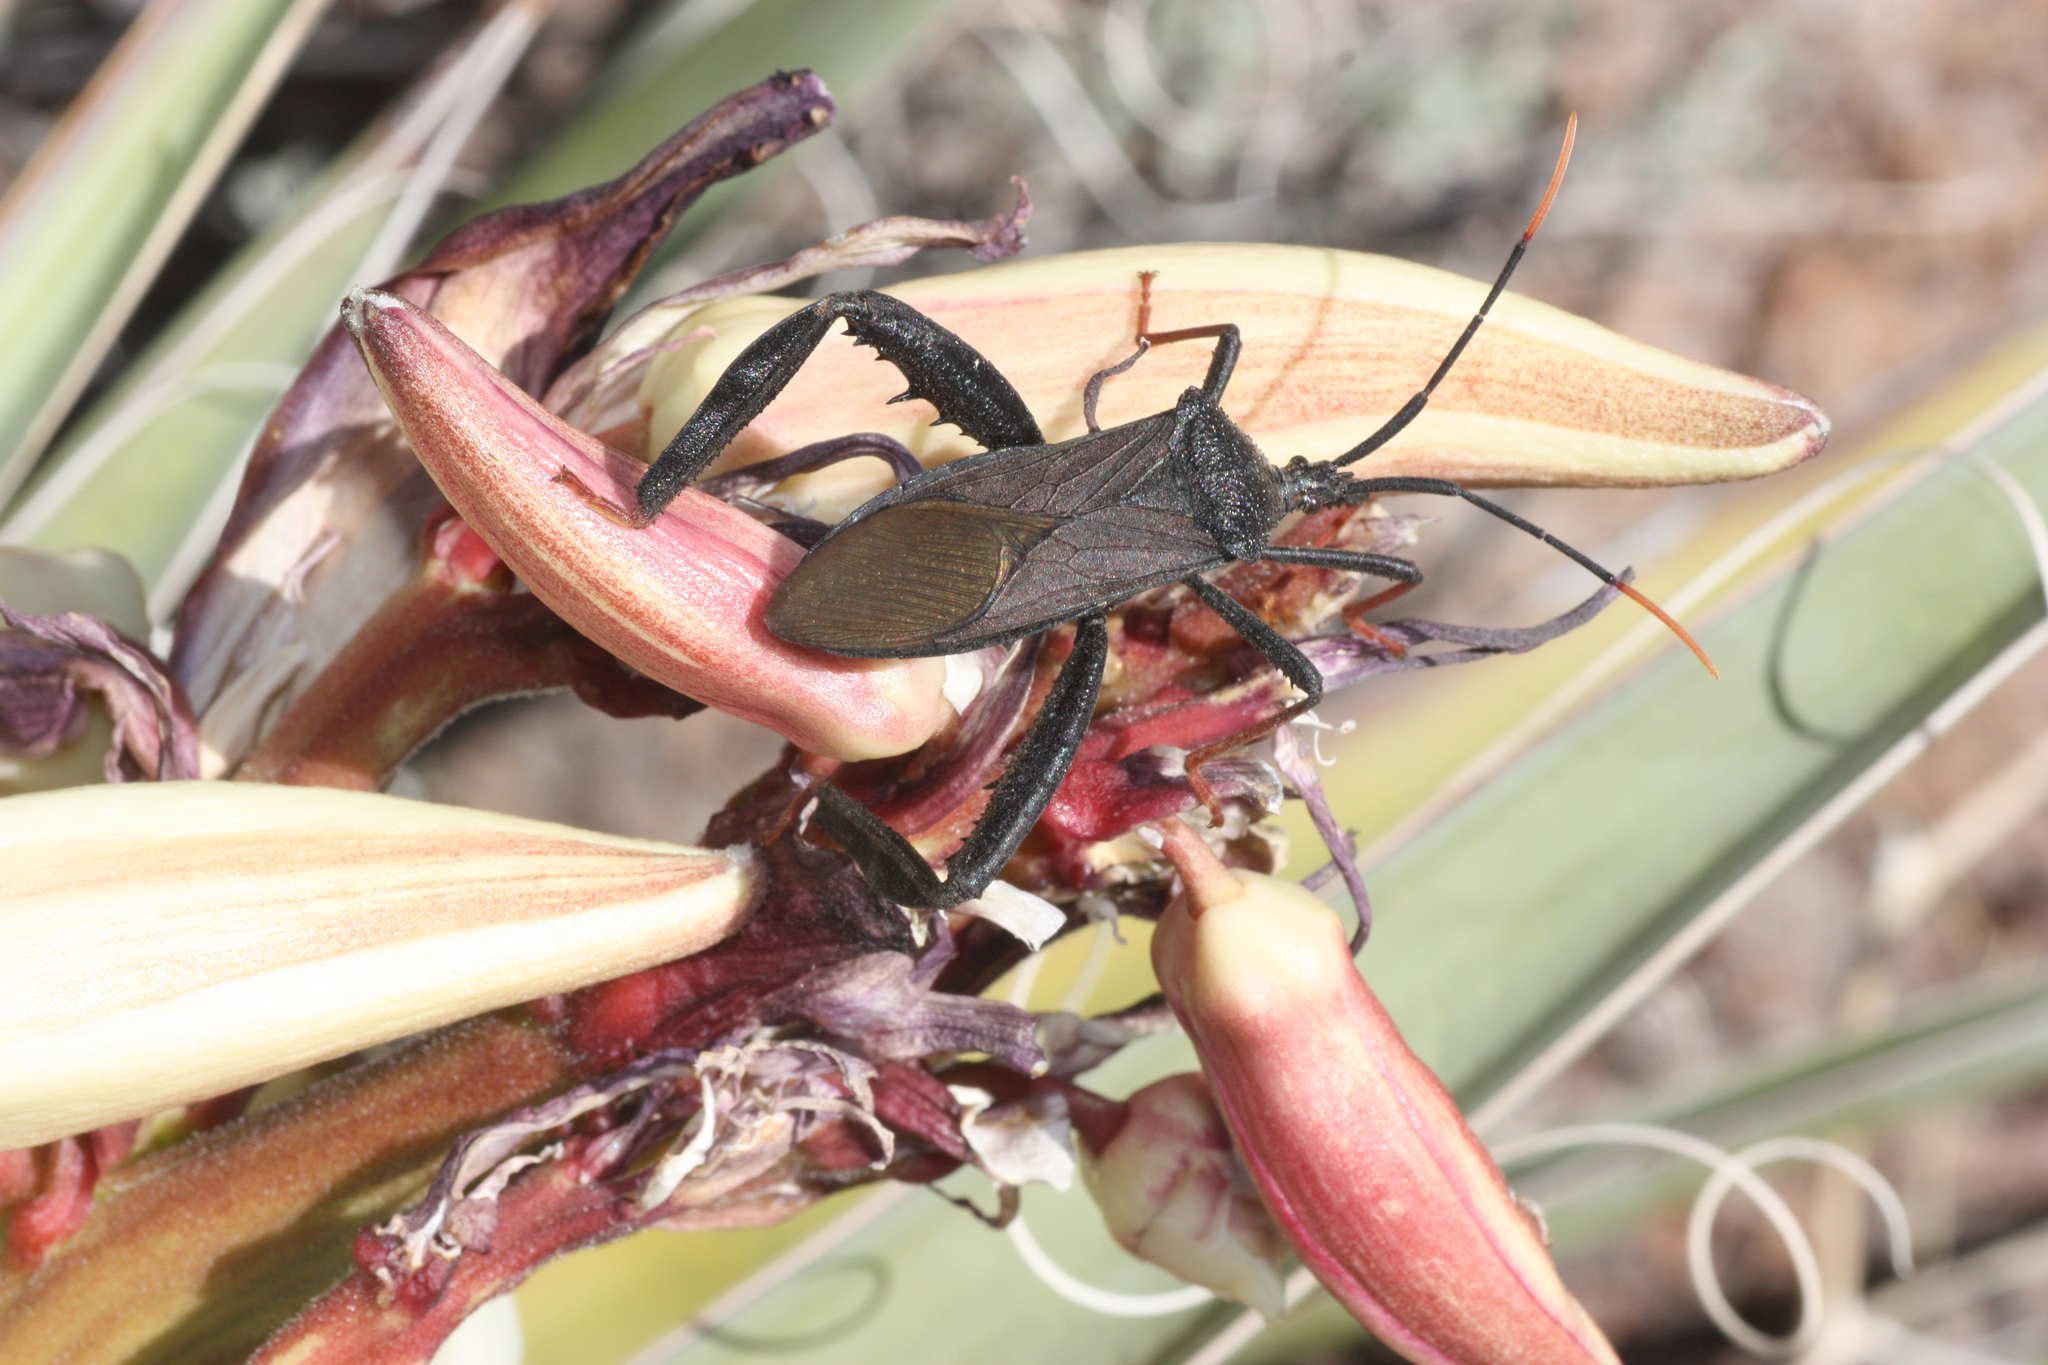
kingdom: Animalia
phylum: Arthropoda
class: Insecta
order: Hemiptera
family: Coreidae
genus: Acanthocephala
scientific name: Acanthocephala thomasi
